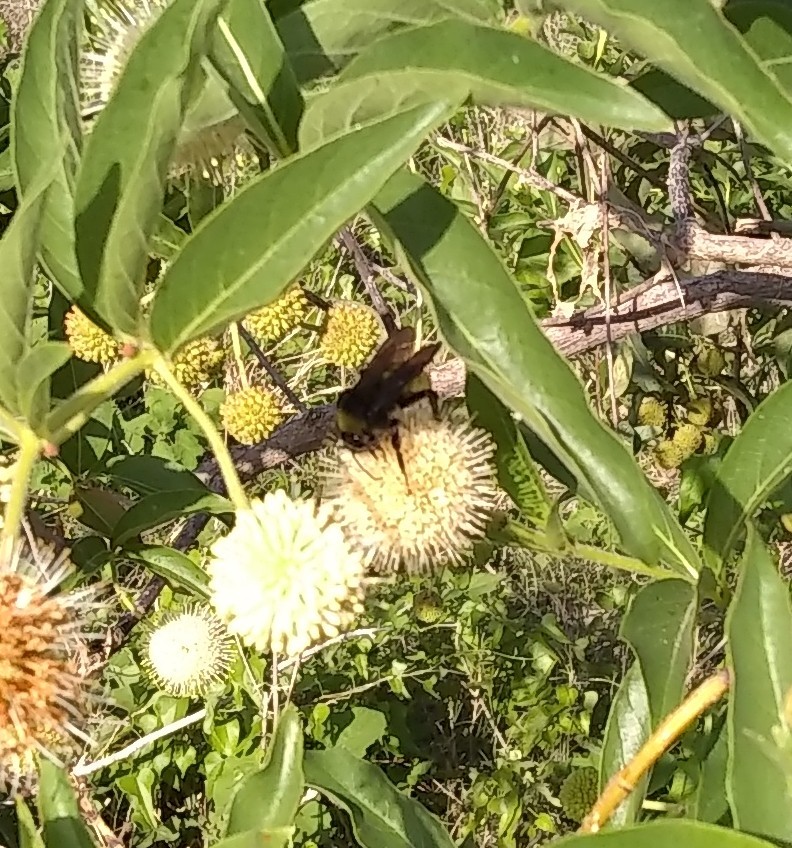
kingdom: Animalia
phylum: Arthropoda
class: Insecta
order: Hymenoptera
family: Apidae
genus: Bombus
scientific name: Bombus pensylvanicus
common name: Bumble bee
